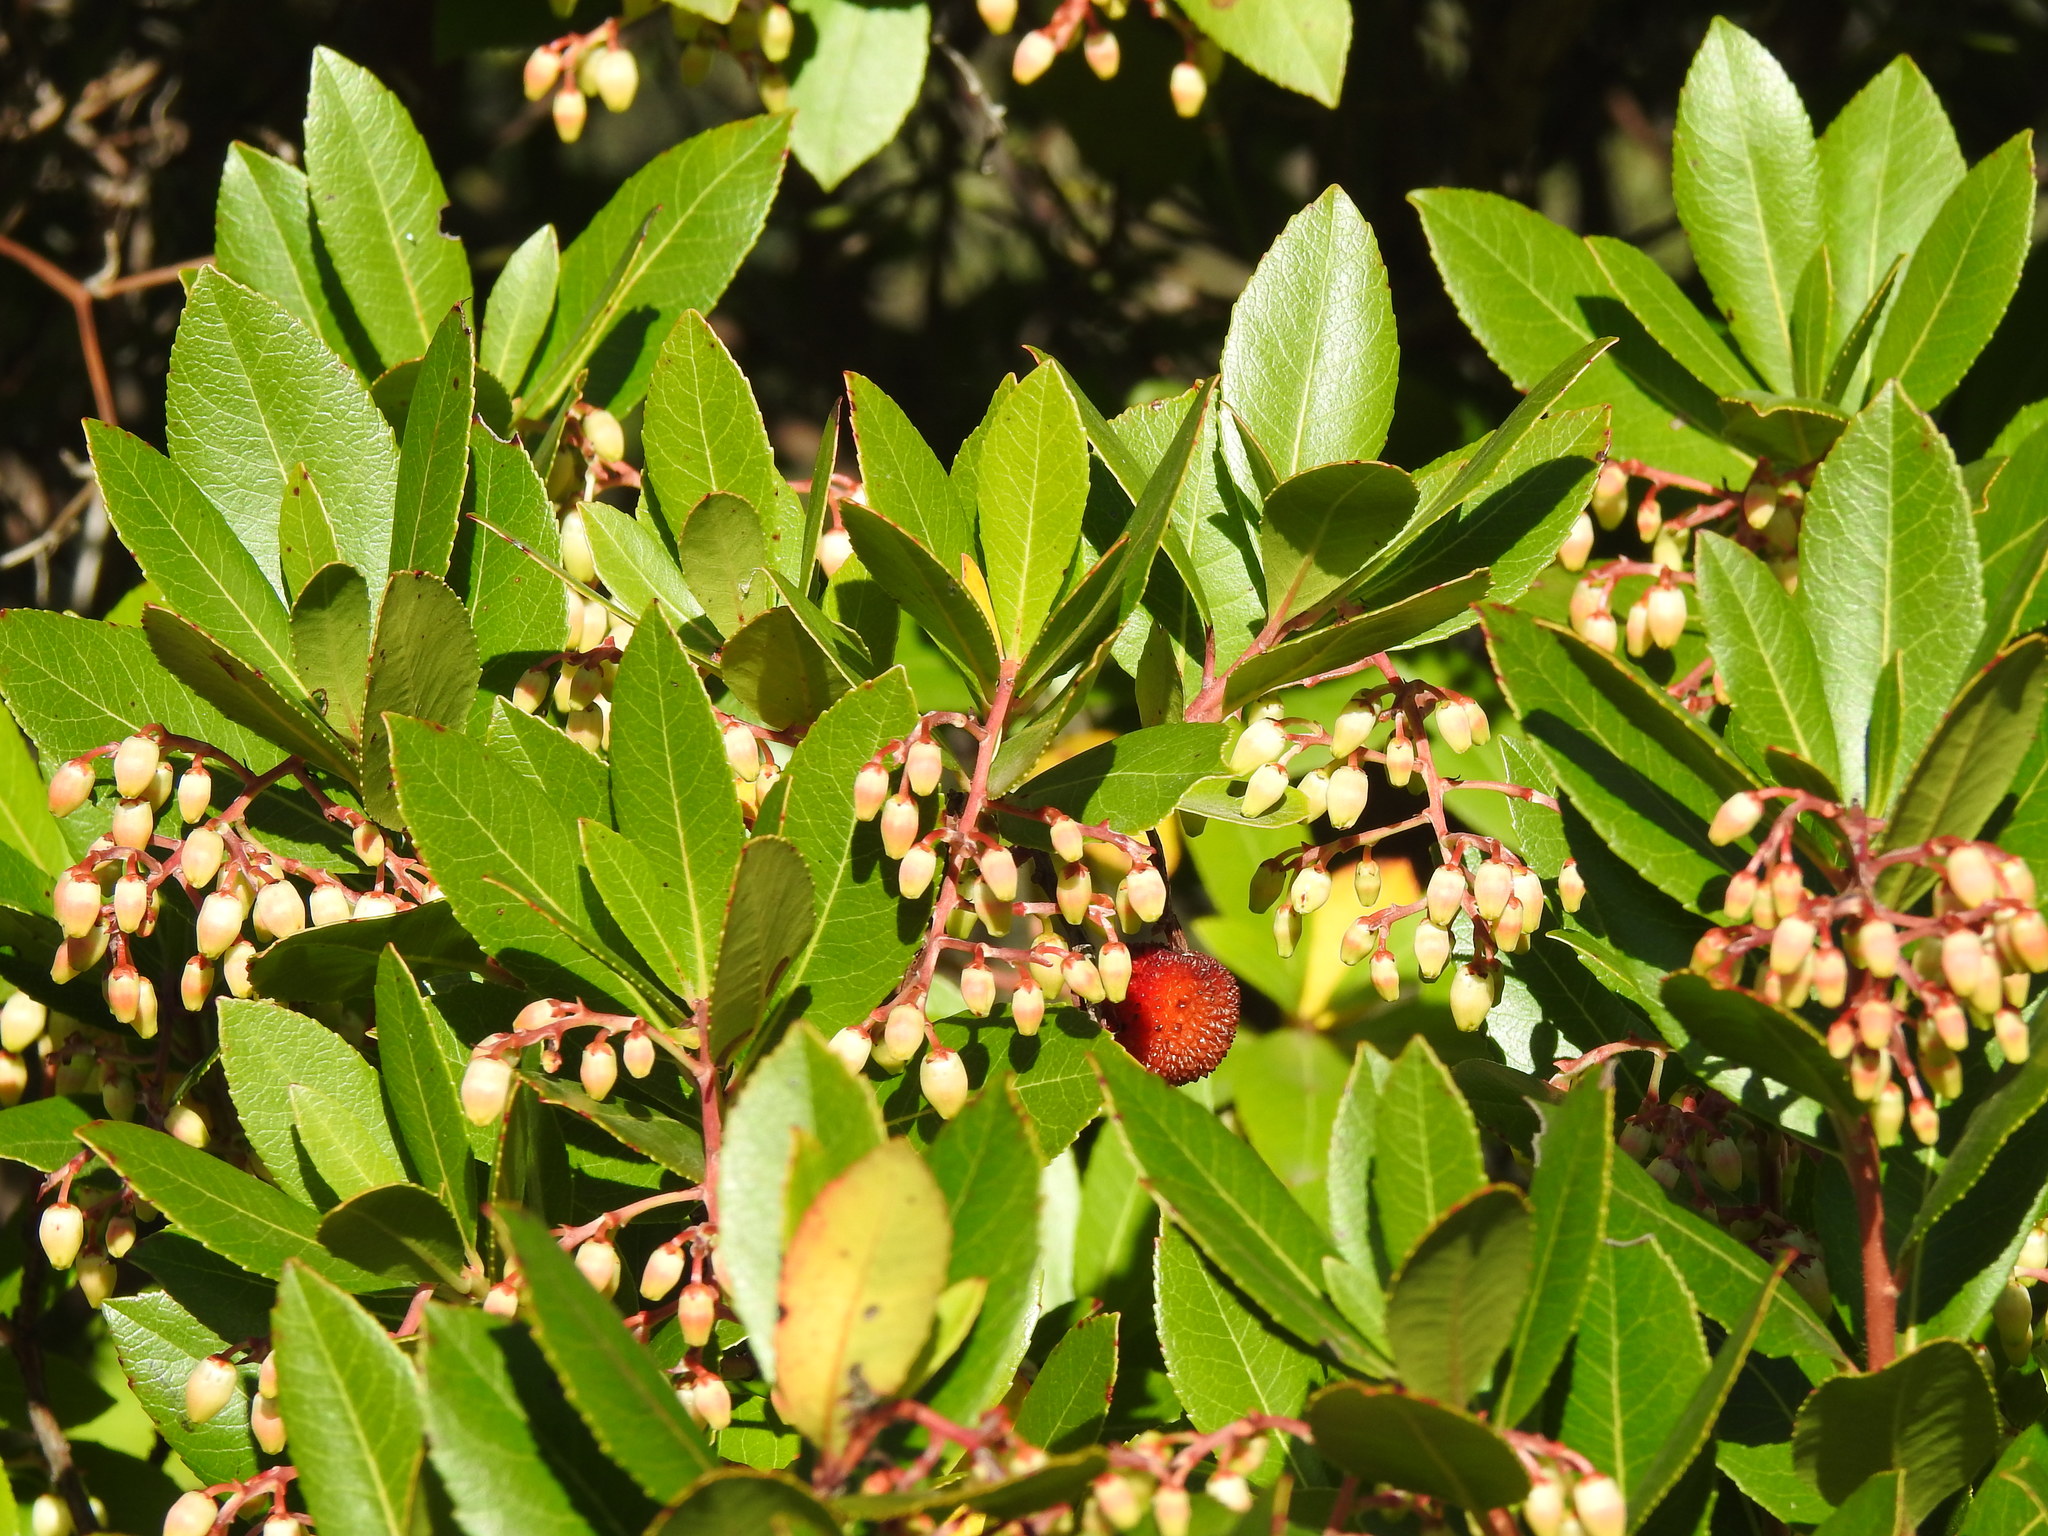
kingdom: Plantae
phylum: Tracheophyta
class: Magnoliopsida
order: Ericales
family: Ericaceae
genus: Arbutus
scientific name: Arbutus unedo
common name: Strawberry-tree
